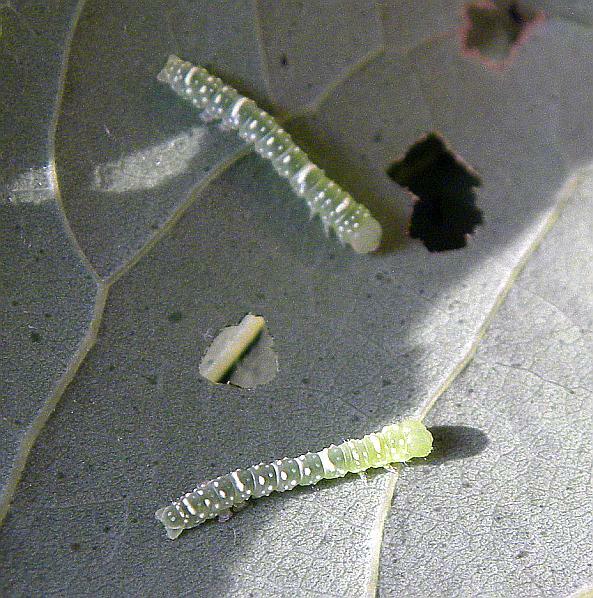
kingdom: Animalia
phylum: Arthropoda
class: Insecta
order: Lepidoptera
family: Noctuidae
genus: Raphia
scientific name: Raphia frater
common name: Brother
